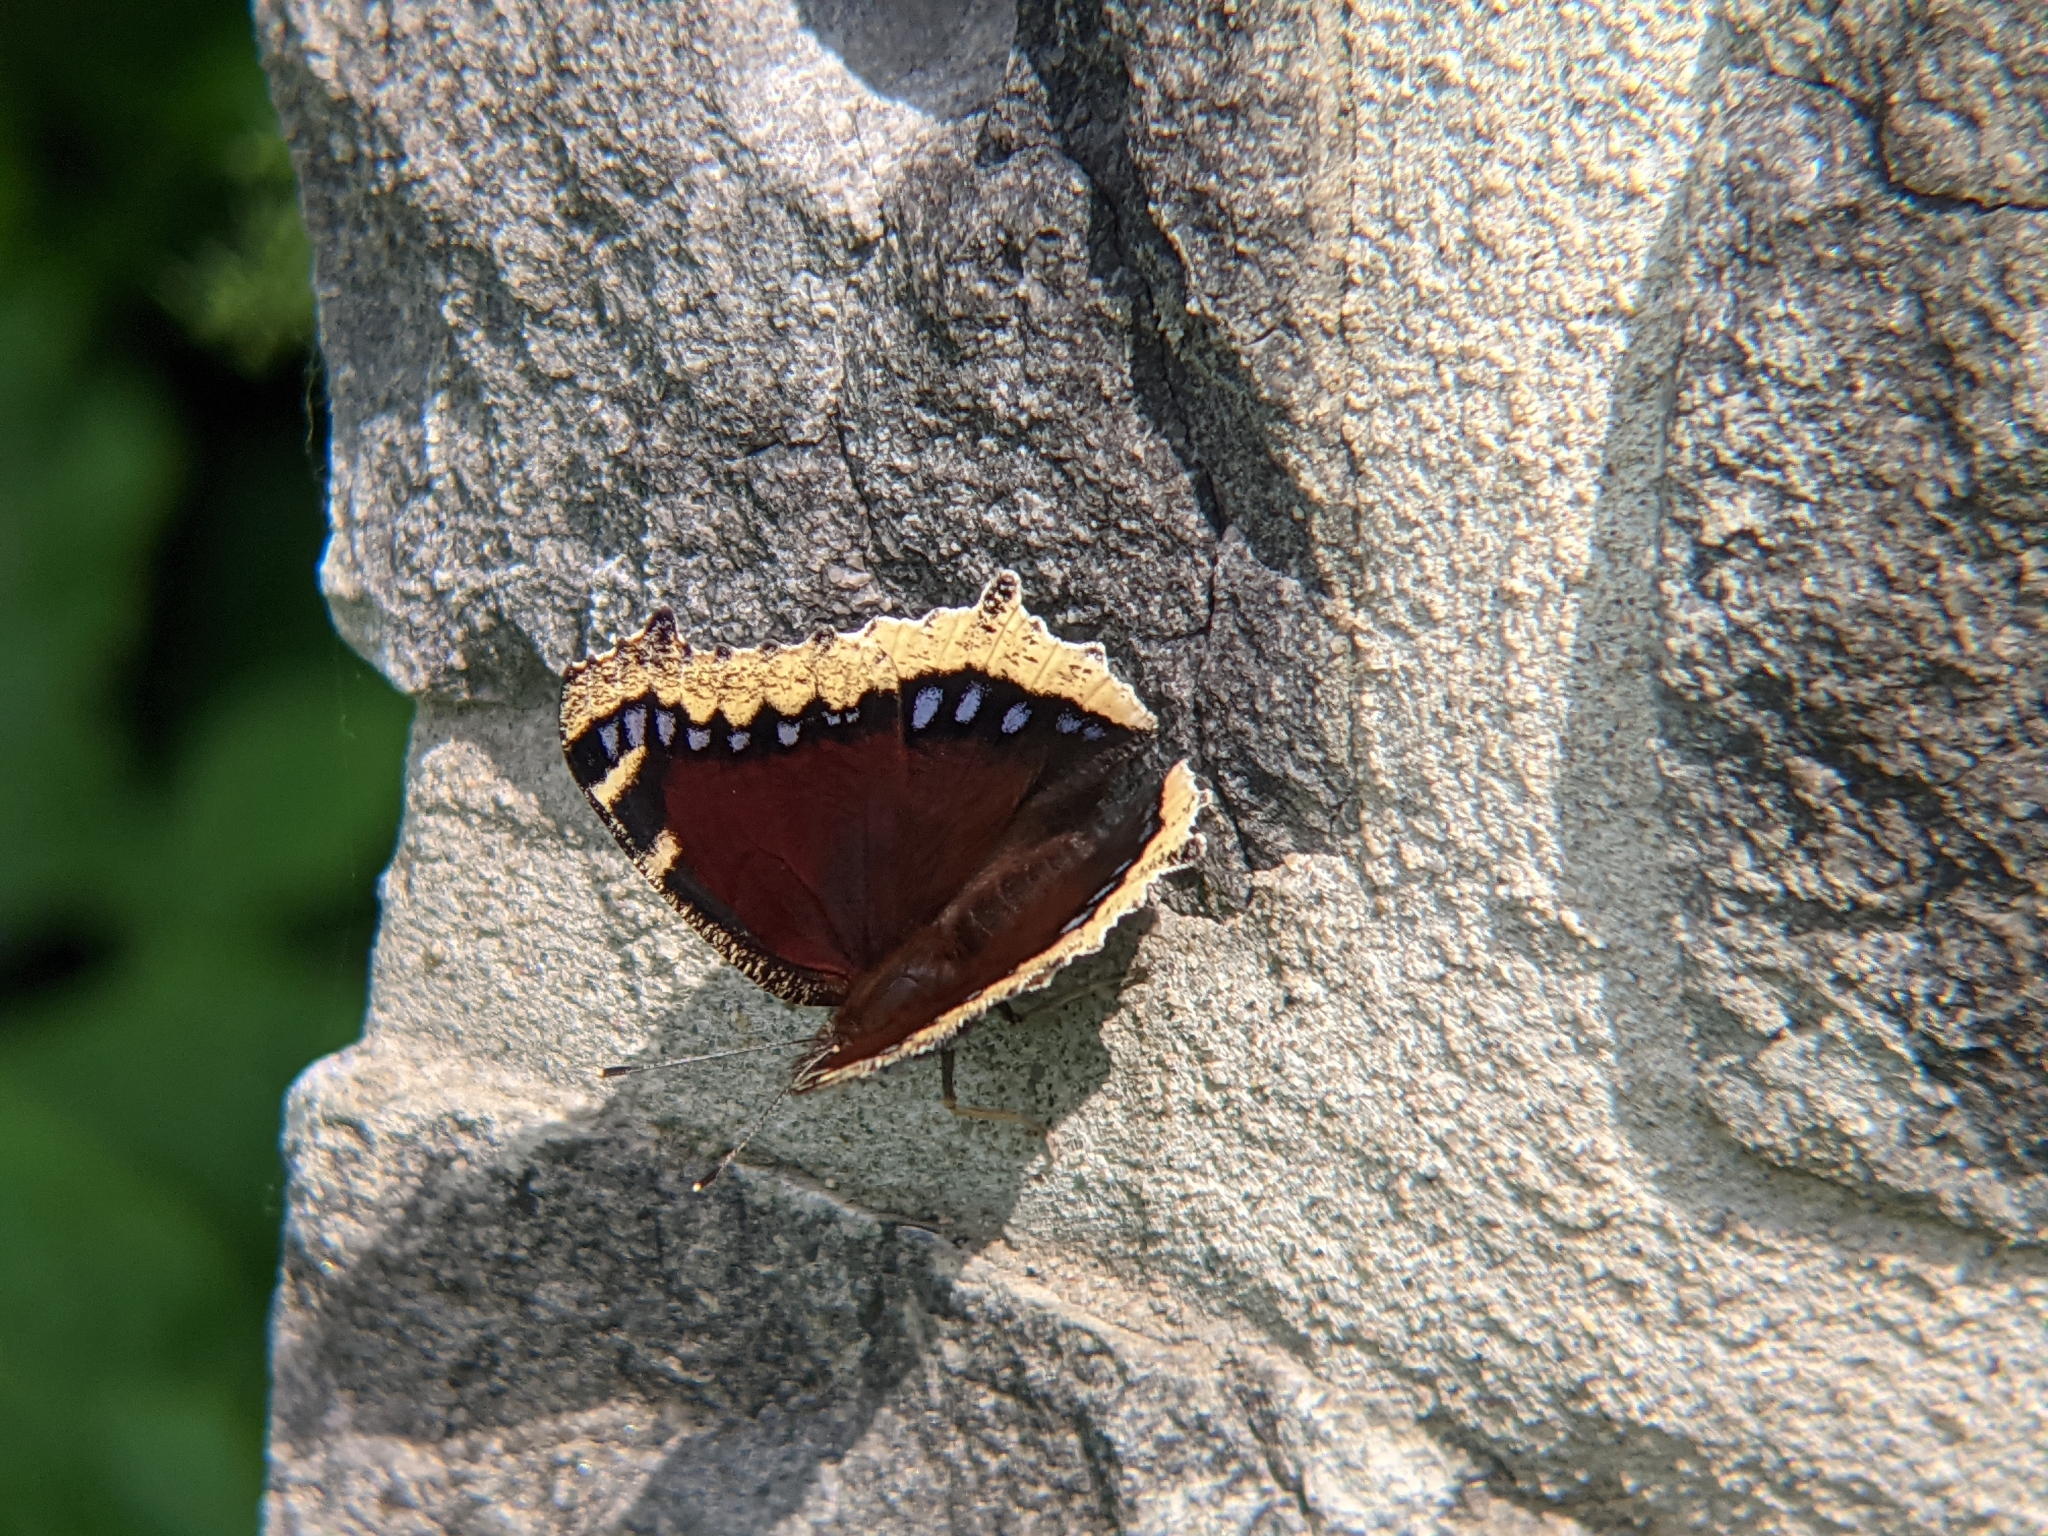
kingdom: Animalia
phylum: Arthropoda
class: Insecta
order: Lepidoptera
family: Nymphalidae
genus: Nymphalis
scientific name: Nymphalis antiopa
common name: Camberwell beauty
